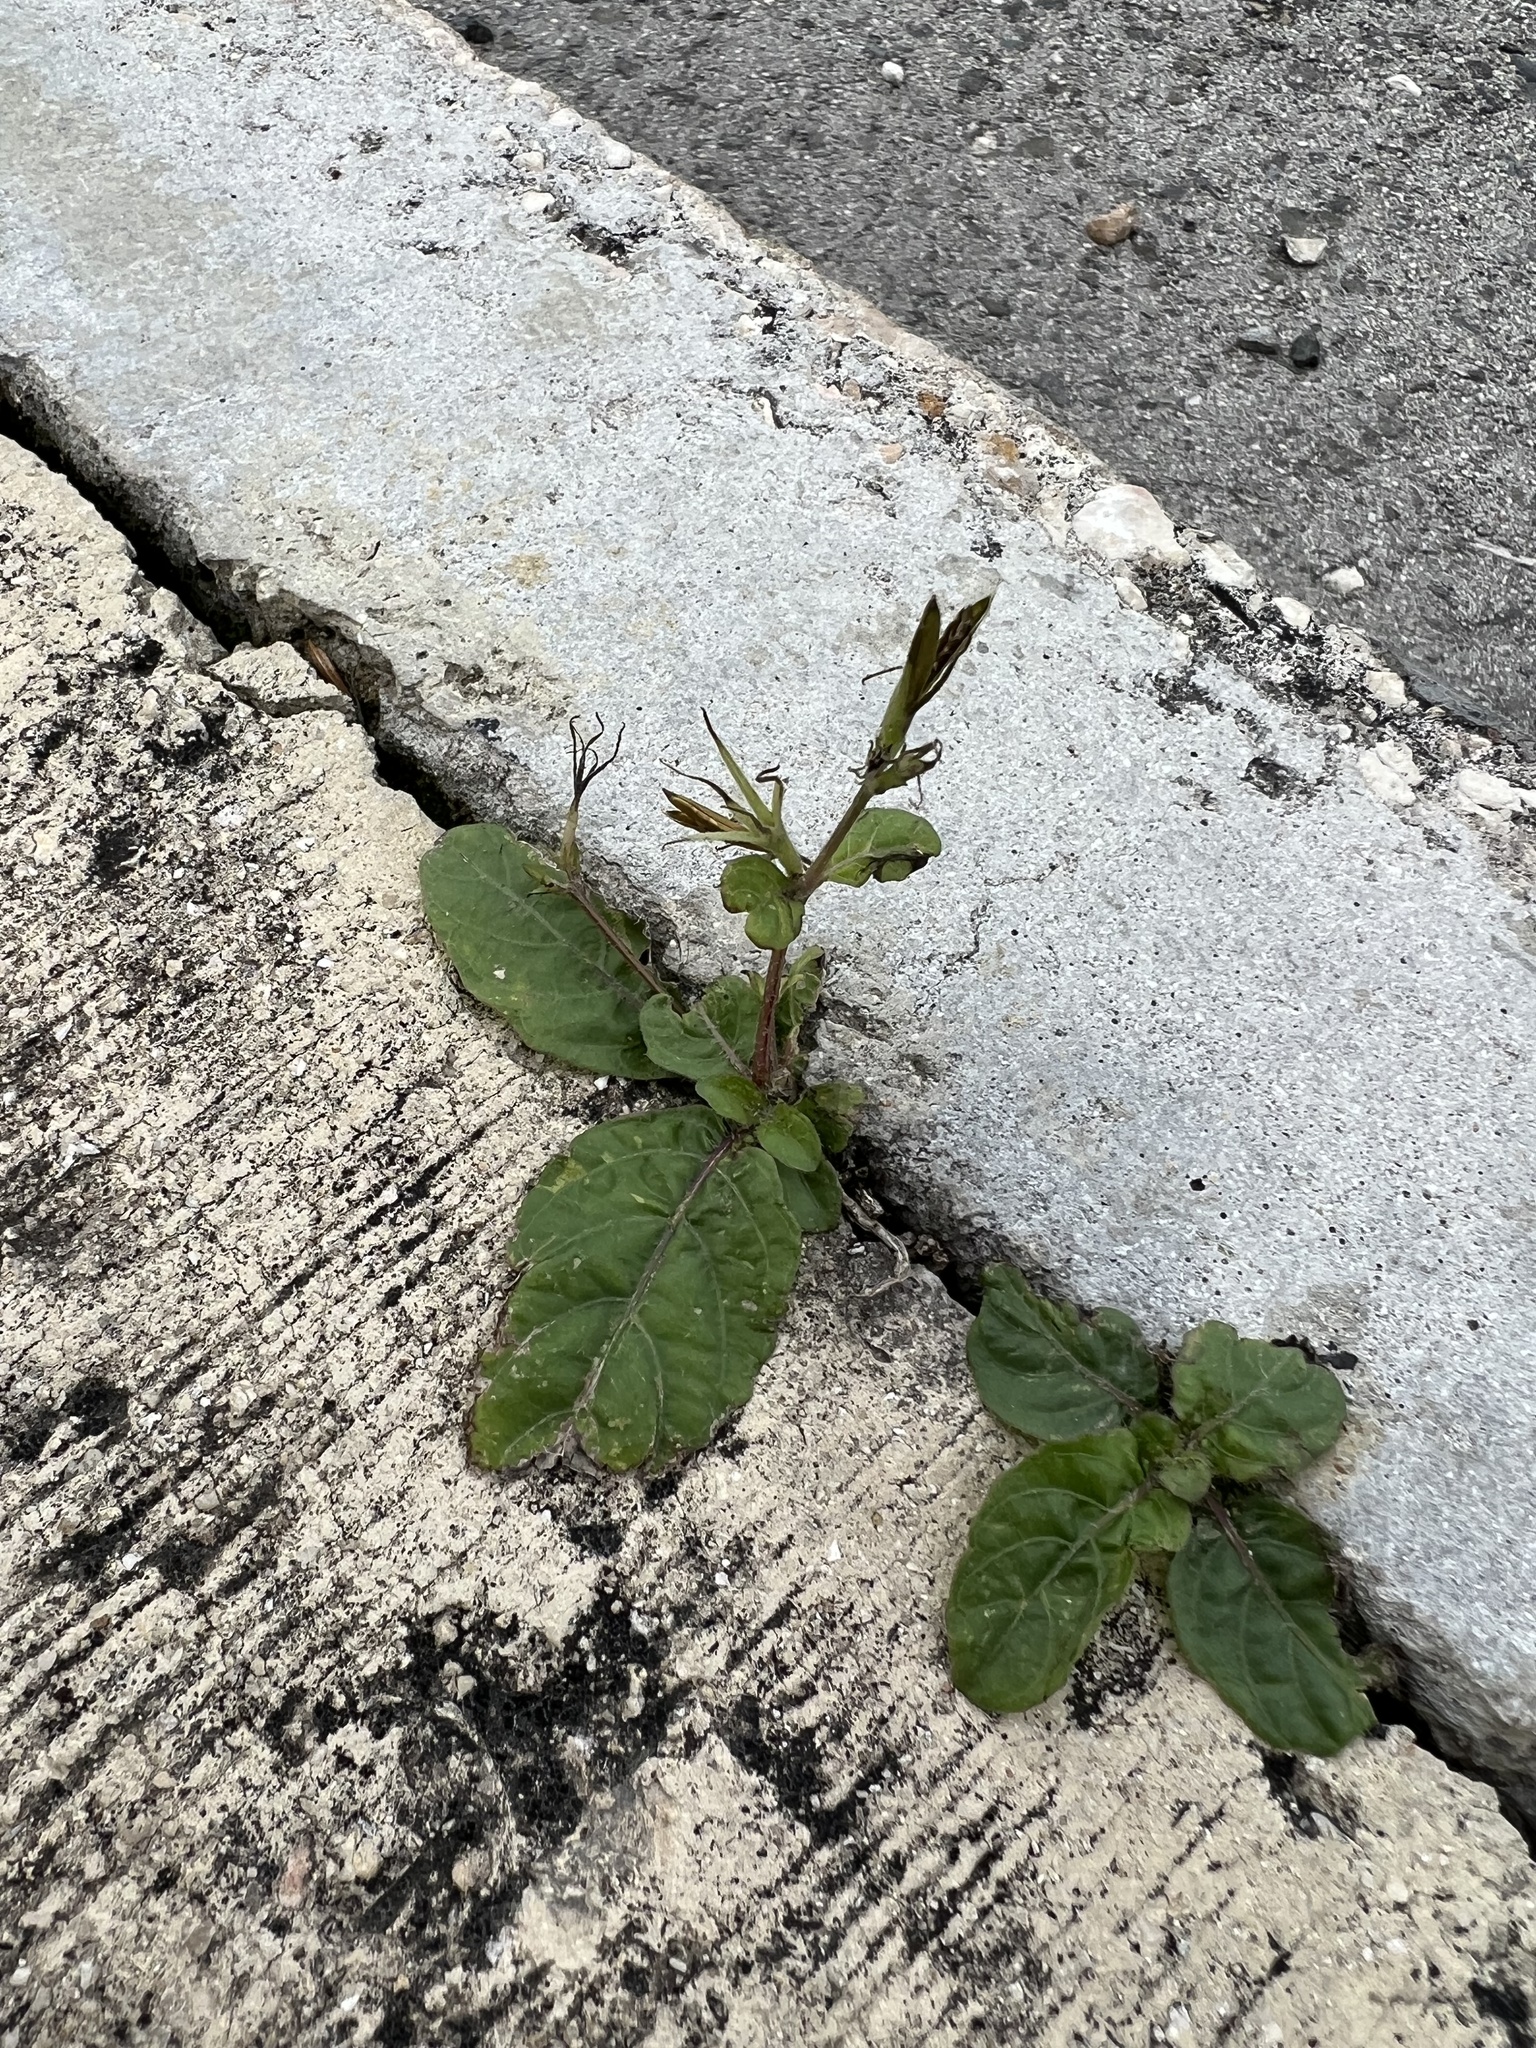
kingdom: Plantae
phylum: Tracheophyta
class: Magnoliopsida
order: Lamiales
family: Acanthaceae
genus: Ruellia
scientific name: Ruellia tuberosa
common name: Devil's bit
